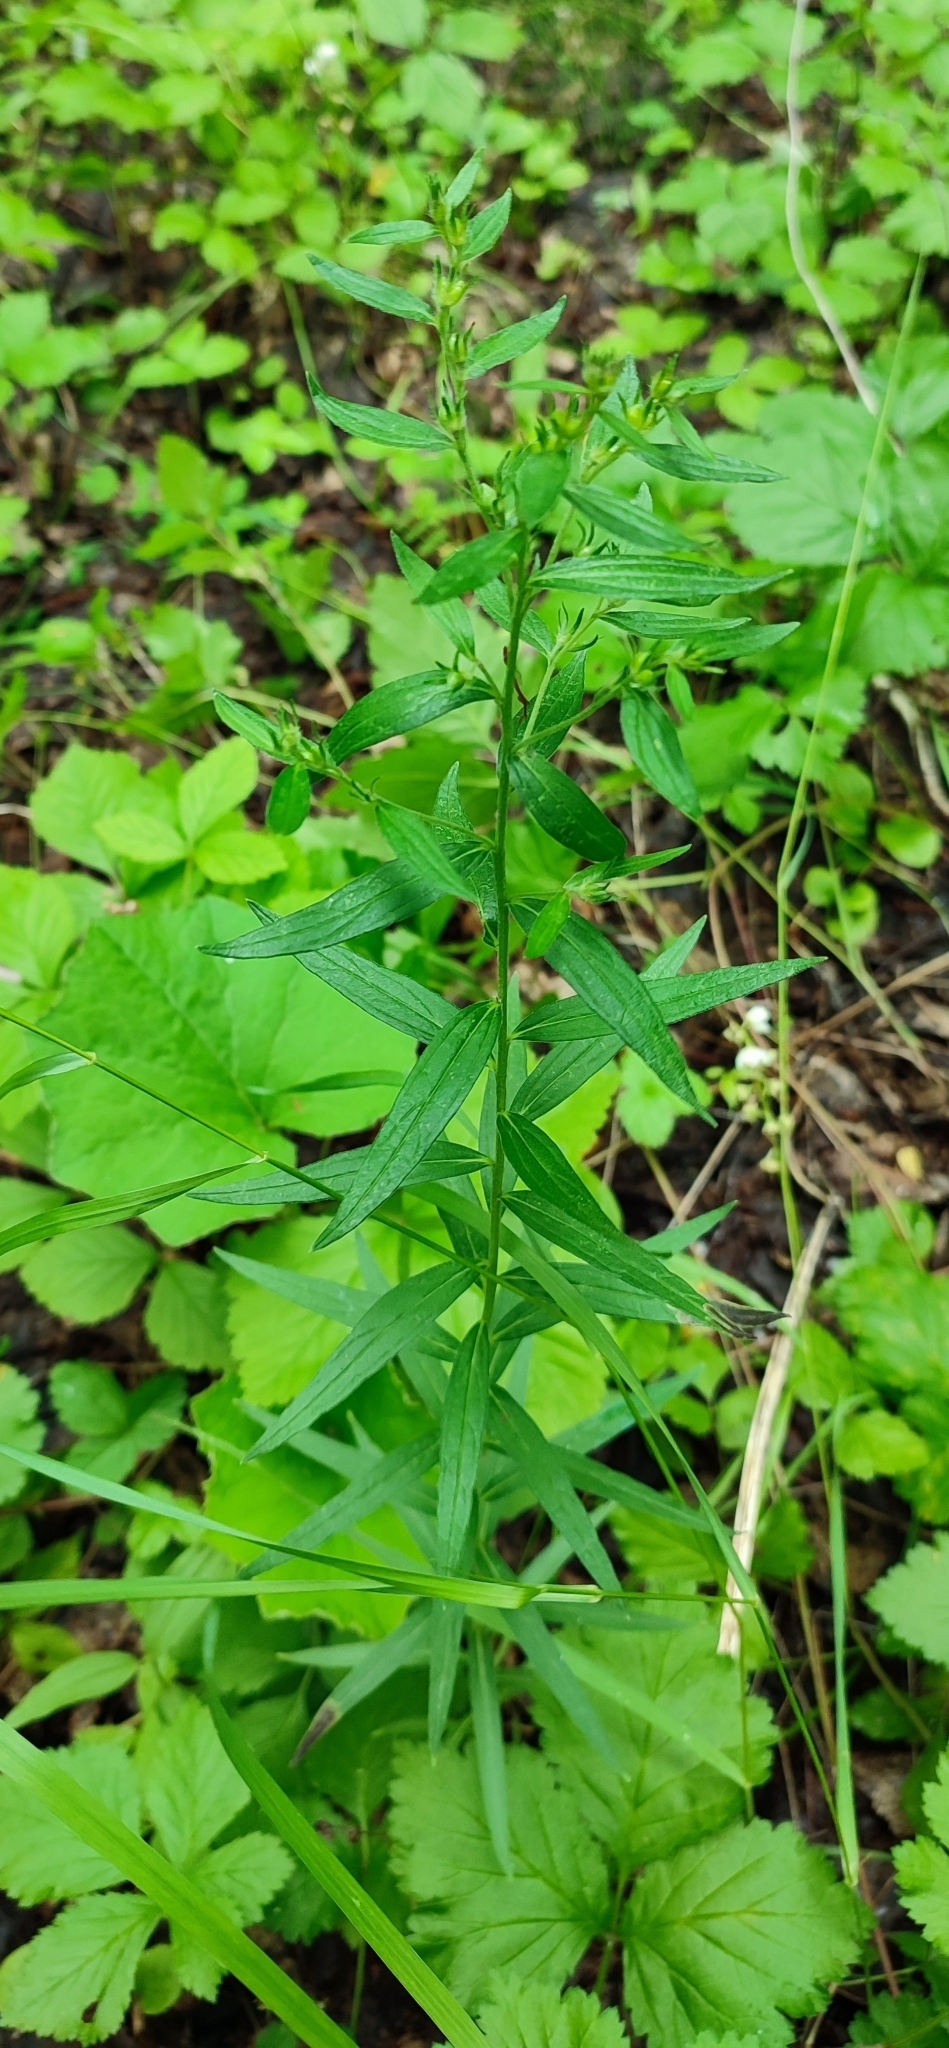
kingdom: Plantae
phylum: Tracheophyta
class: Magnoliopsida
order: Boraginales
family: Boraginaceae
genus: Lithospermum
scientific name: Lithospermum officinale
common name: Common gromwell
